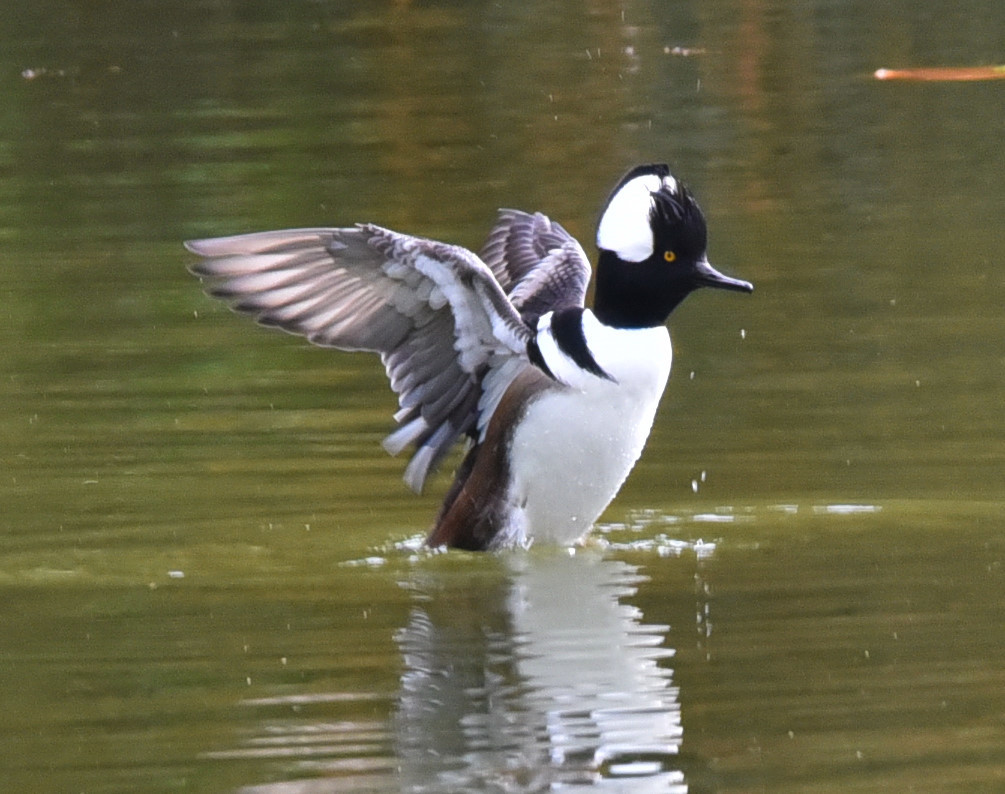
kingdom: Animalia
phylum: Chordata
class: Aves
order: Anseriformes
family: Anatidae
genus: Lophodytes
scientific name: Lophodytes cucullatus
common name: Hooded merganser
